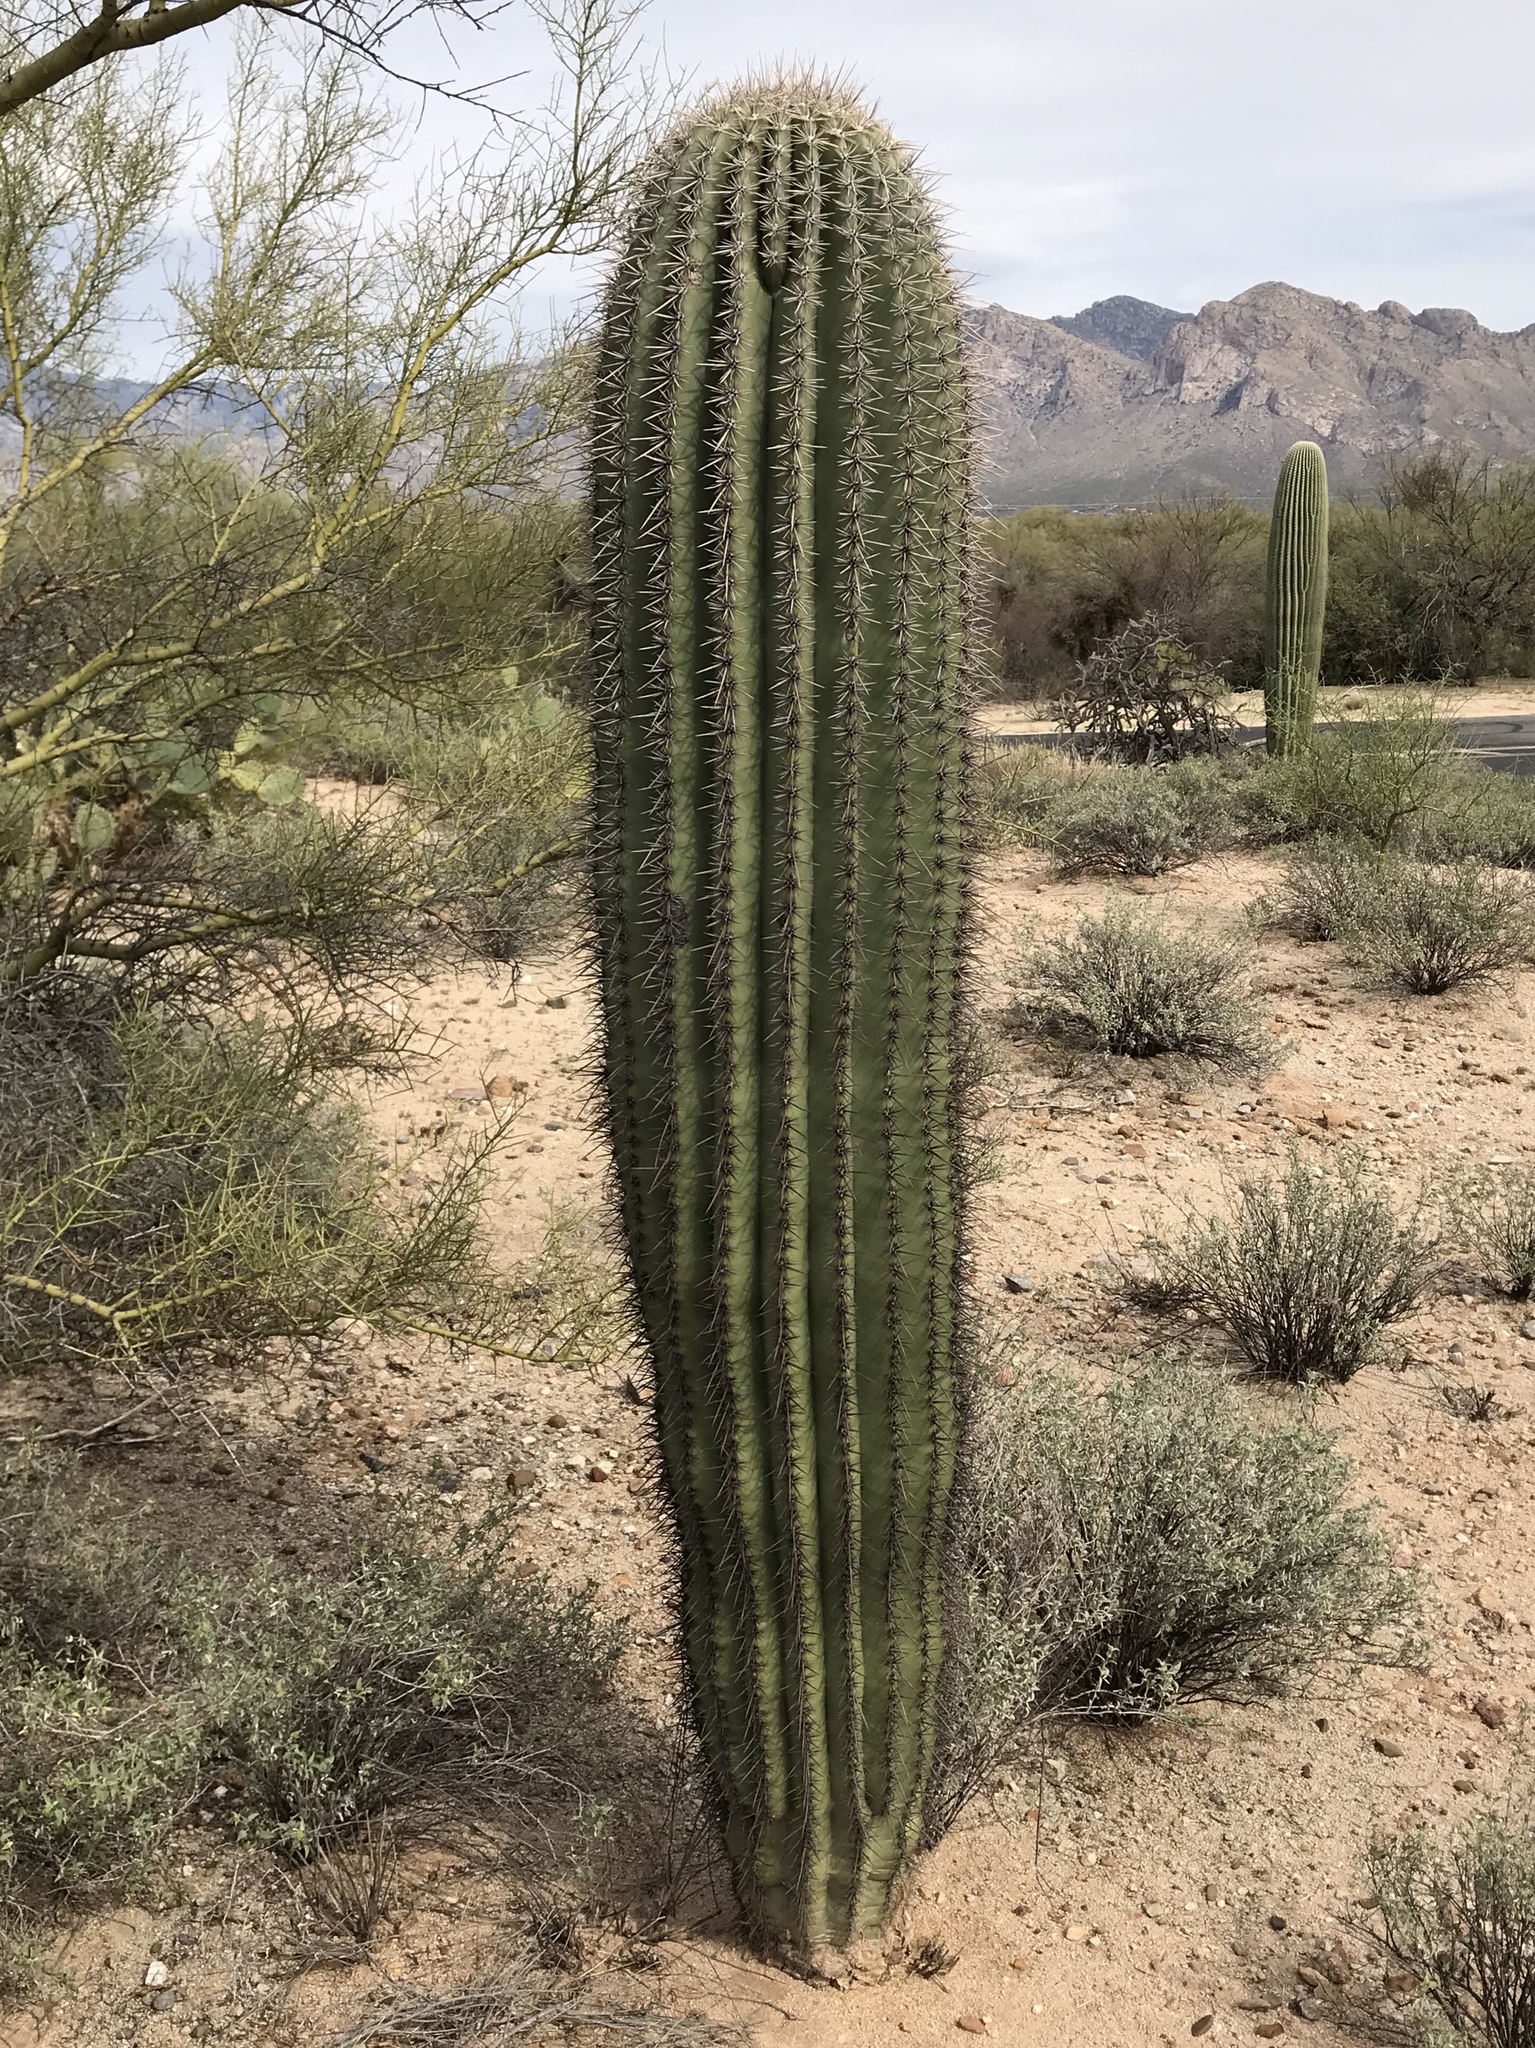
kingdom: Plantae
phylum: Tracheophyta
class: Magnoliopsida
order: Caryophyllales
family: Cactaceae
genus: Carnegiea
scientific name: Carnegiea gigantea
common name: Saguaro
